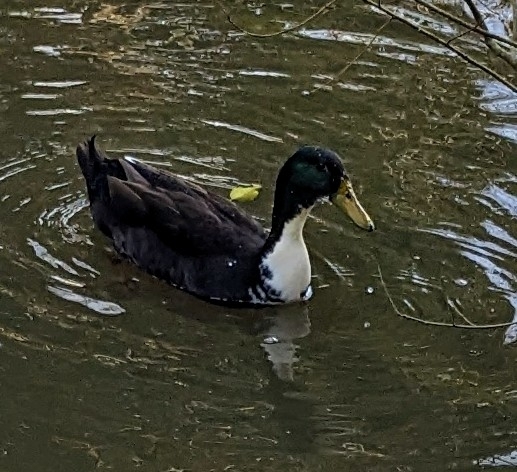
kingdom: Animalia
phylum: Chordata
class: Aves
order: Anseriformes
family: Anatidae
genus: Anas
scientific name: Anas platyrhynchos
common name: Mallard
